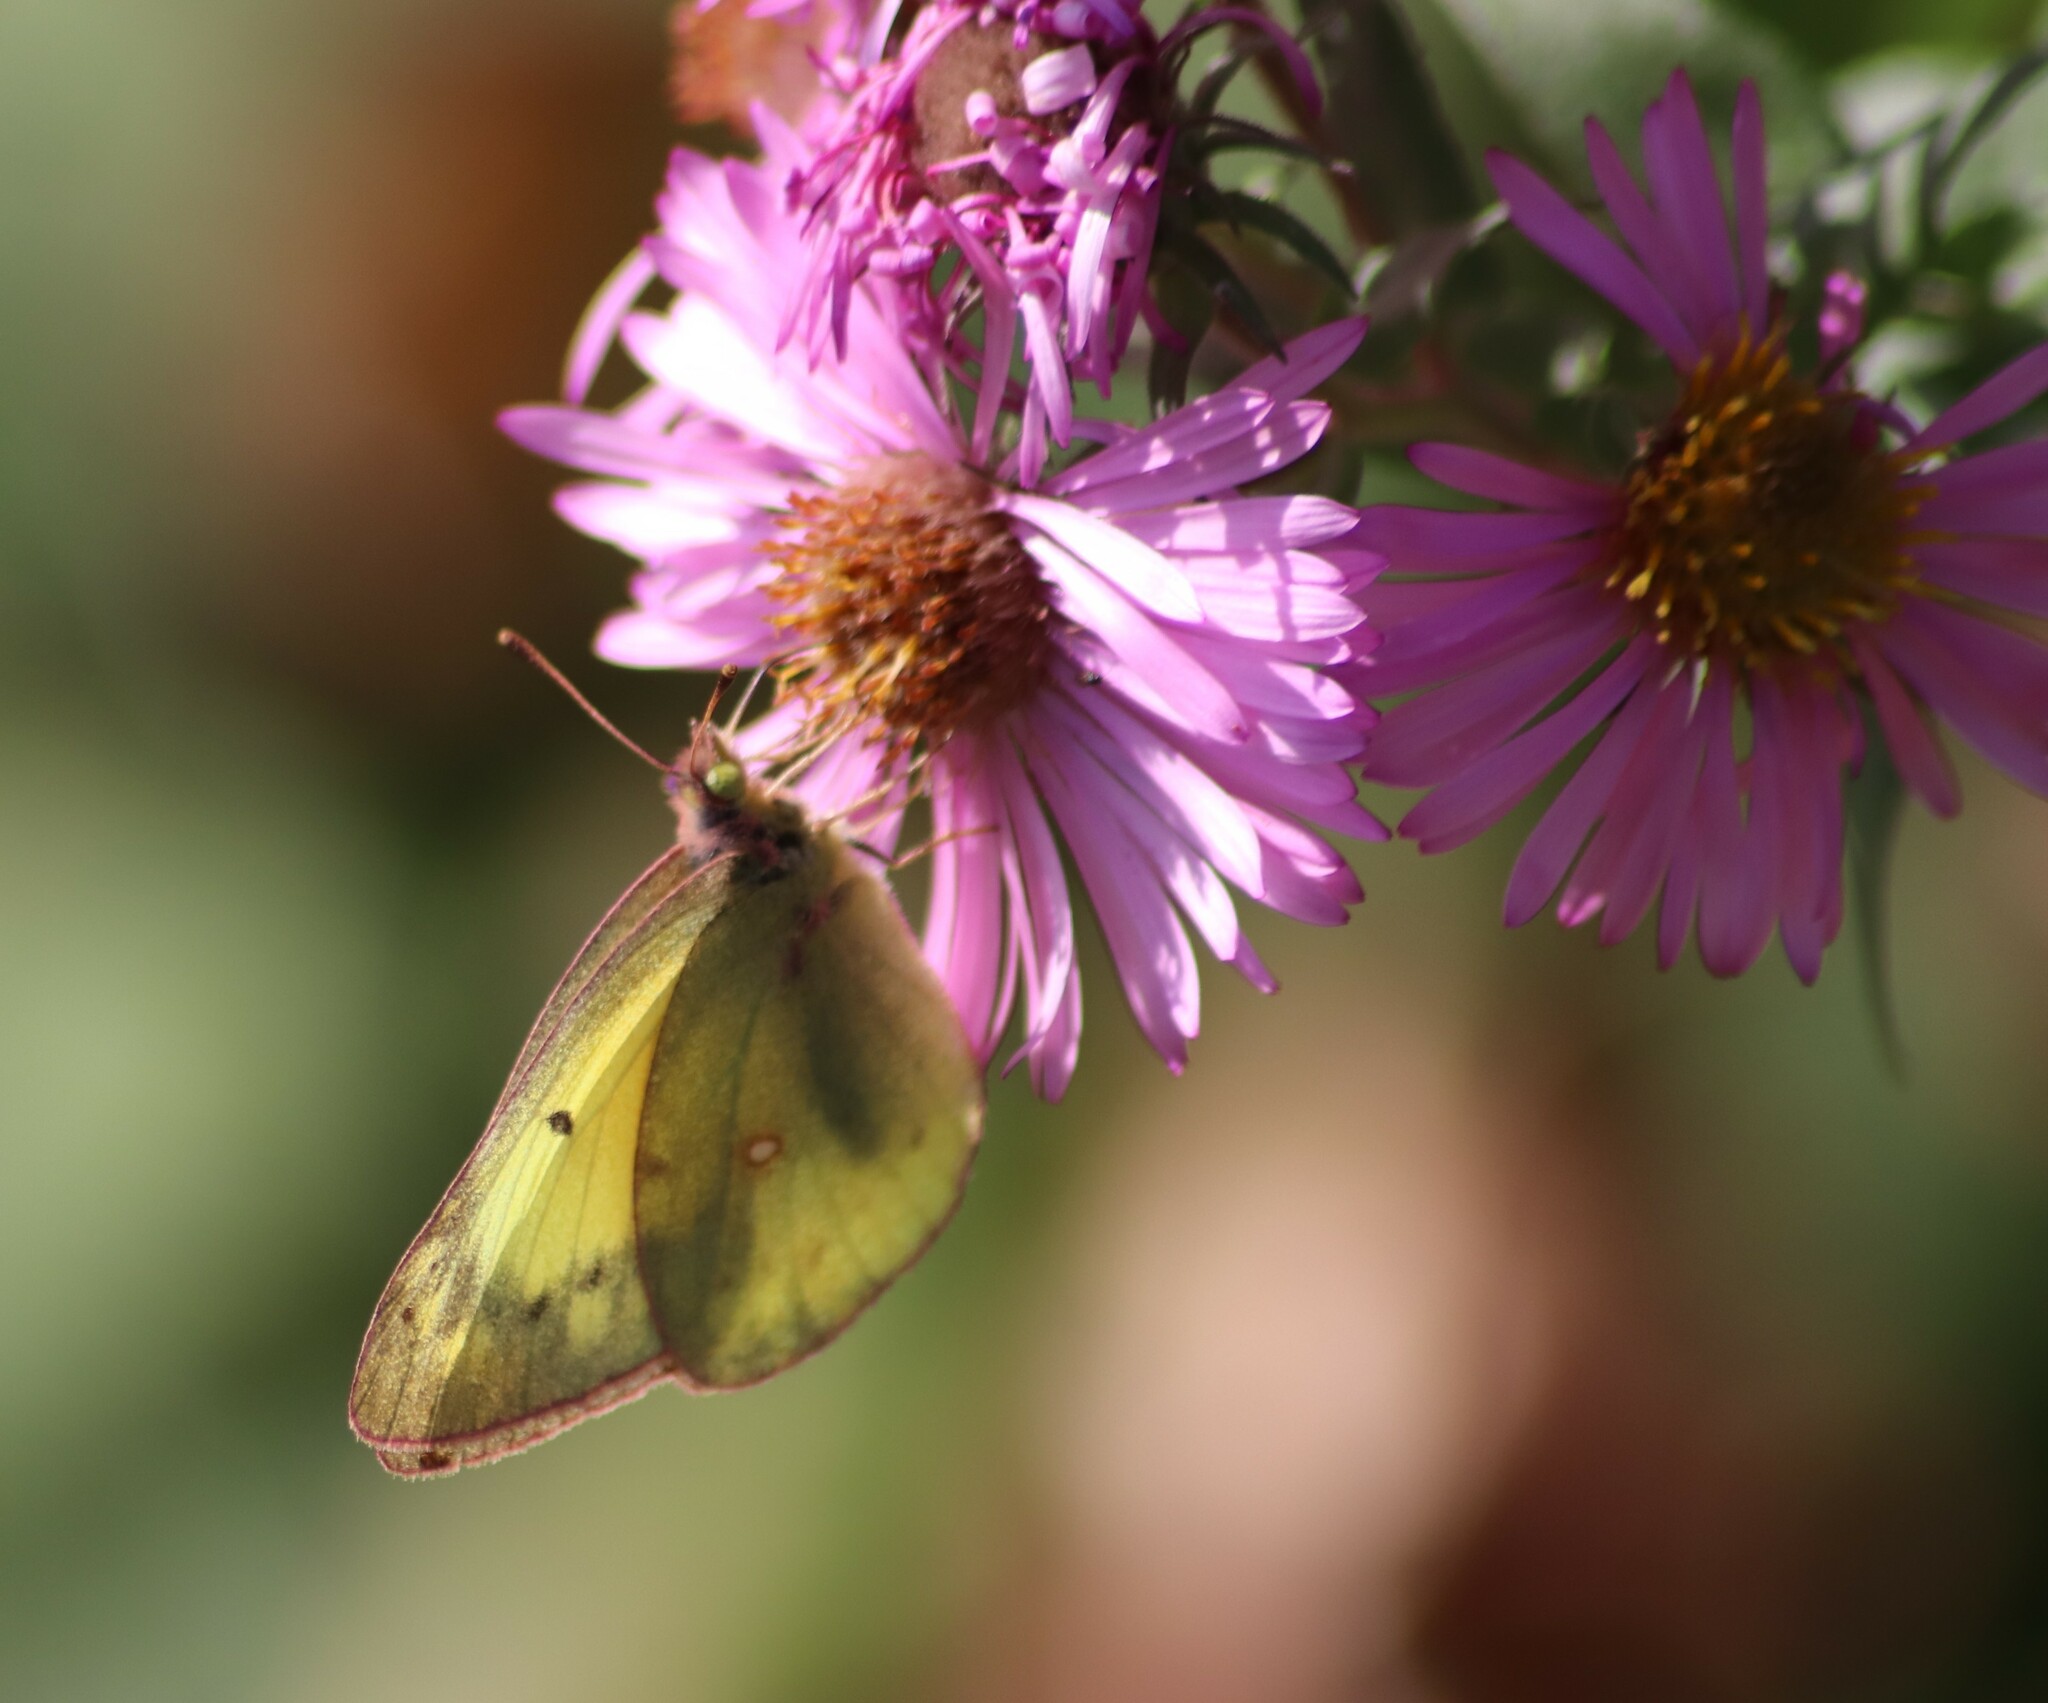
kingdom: Animalia
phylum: Arthropoda
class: Insecta
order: Lepidoptera
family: Pieridae
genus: Colias
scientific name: Colias philodice
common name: Clouded sulphur
